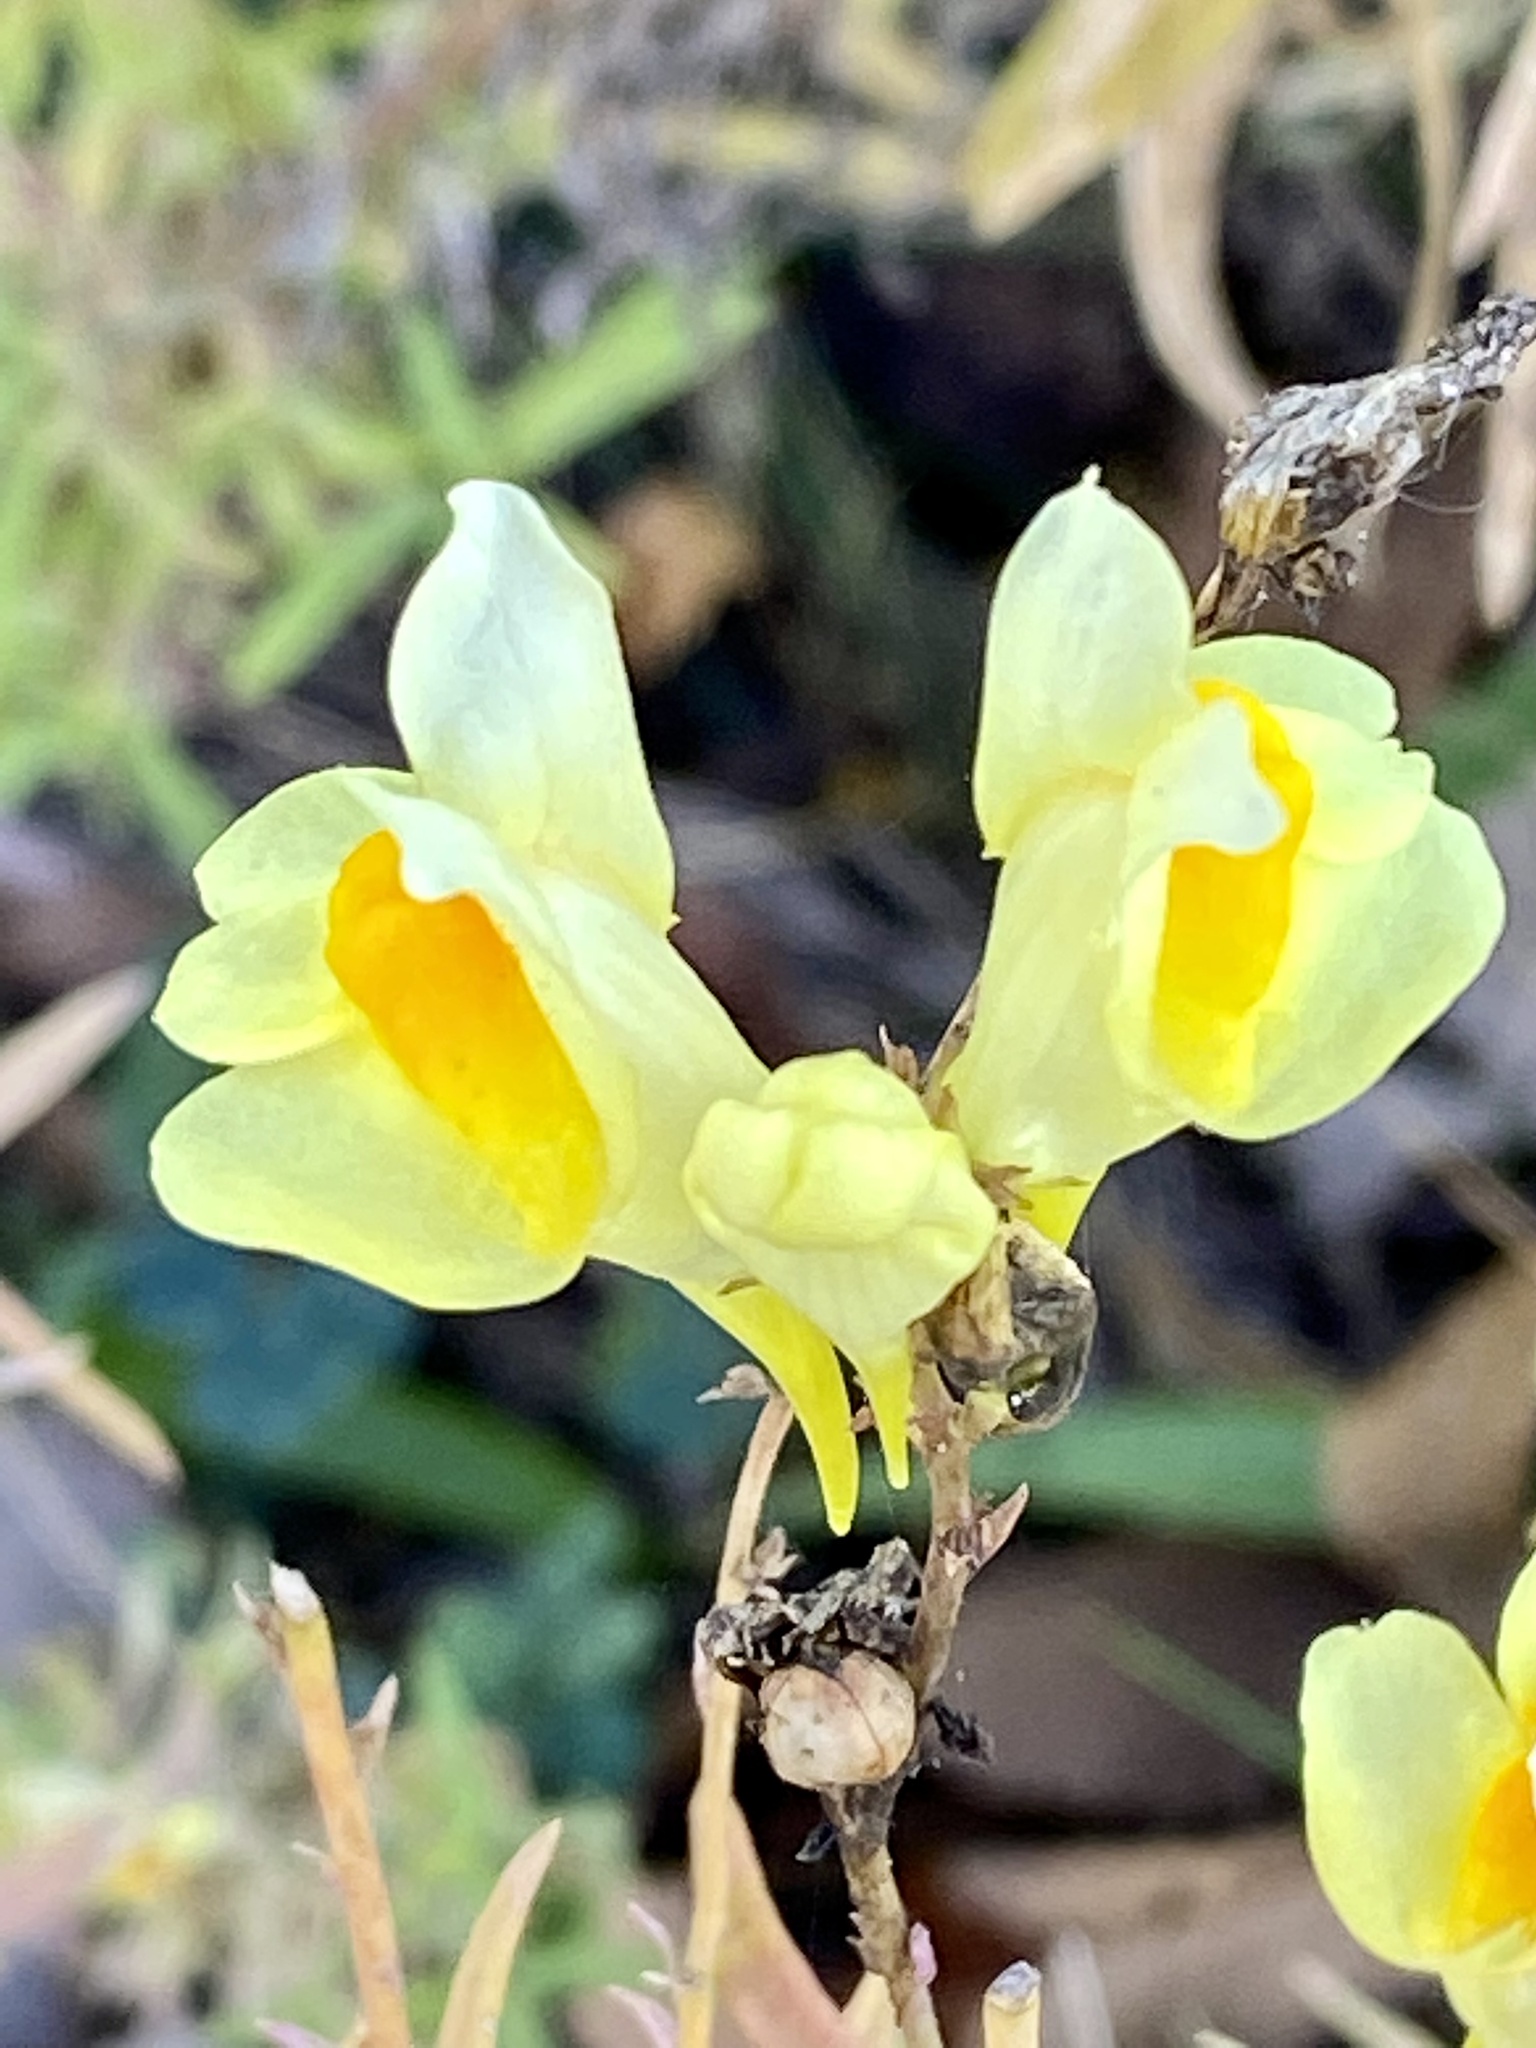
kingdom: Plantae
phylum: Tracheophyta
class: Magnoliopsida
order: Lamiales
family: Plantaginaceae
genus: Linaria
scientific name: Linaria vulgaris
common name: Butter and eggs
